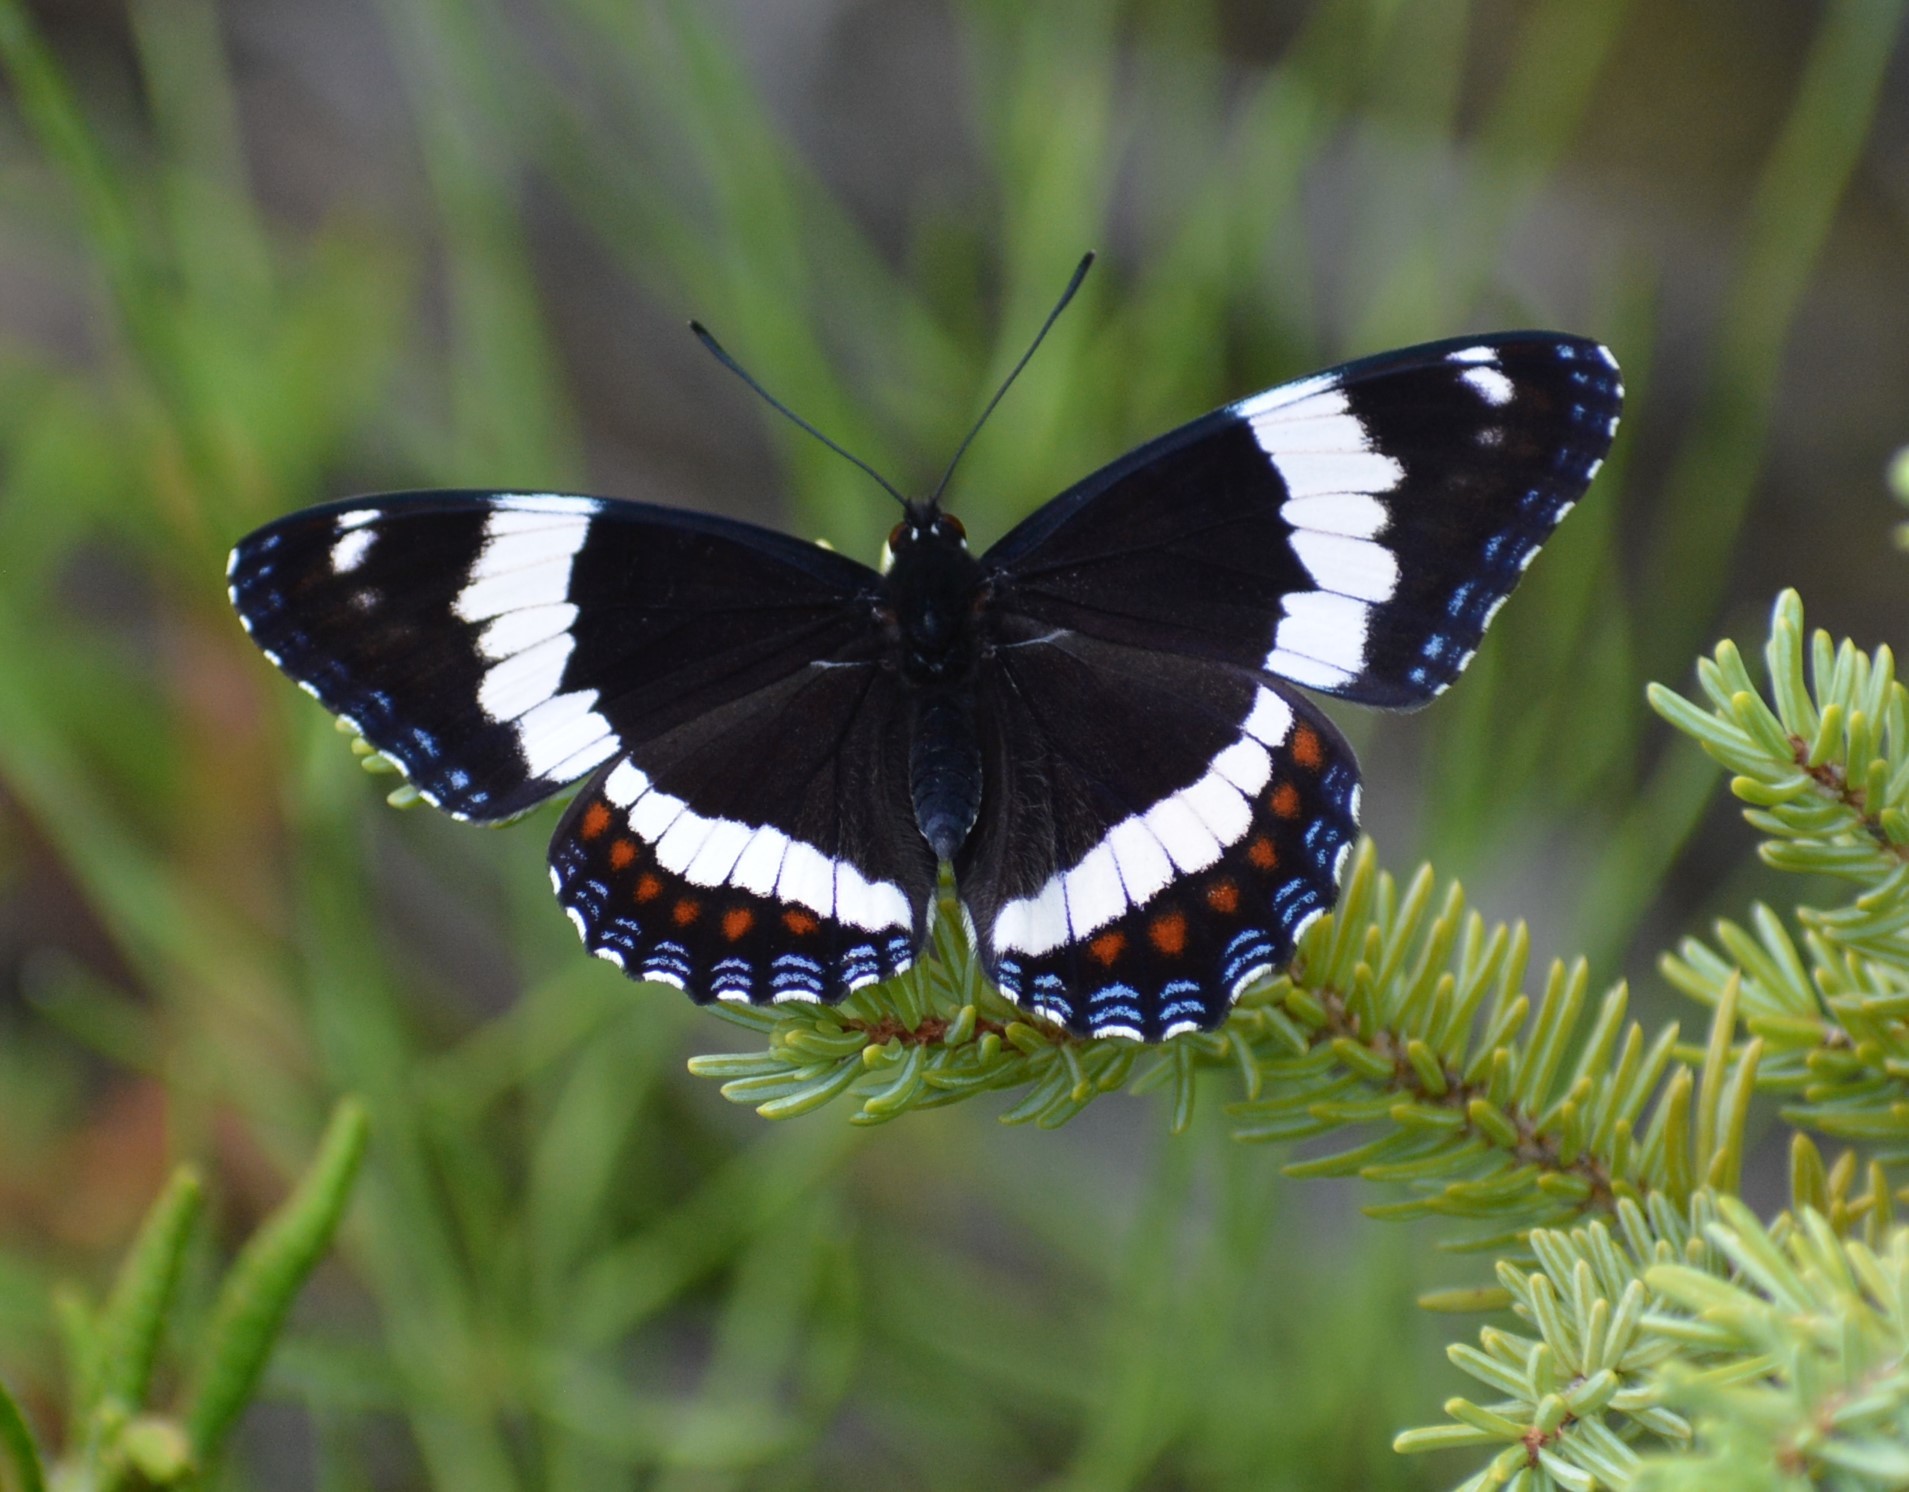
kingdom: Animalia
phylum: Arthropoda
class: Insecta
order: Lepidoptera
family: Nymphalidae
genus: Limenitis
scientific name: Limenitis arthemis
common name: Red-spotted admiral
